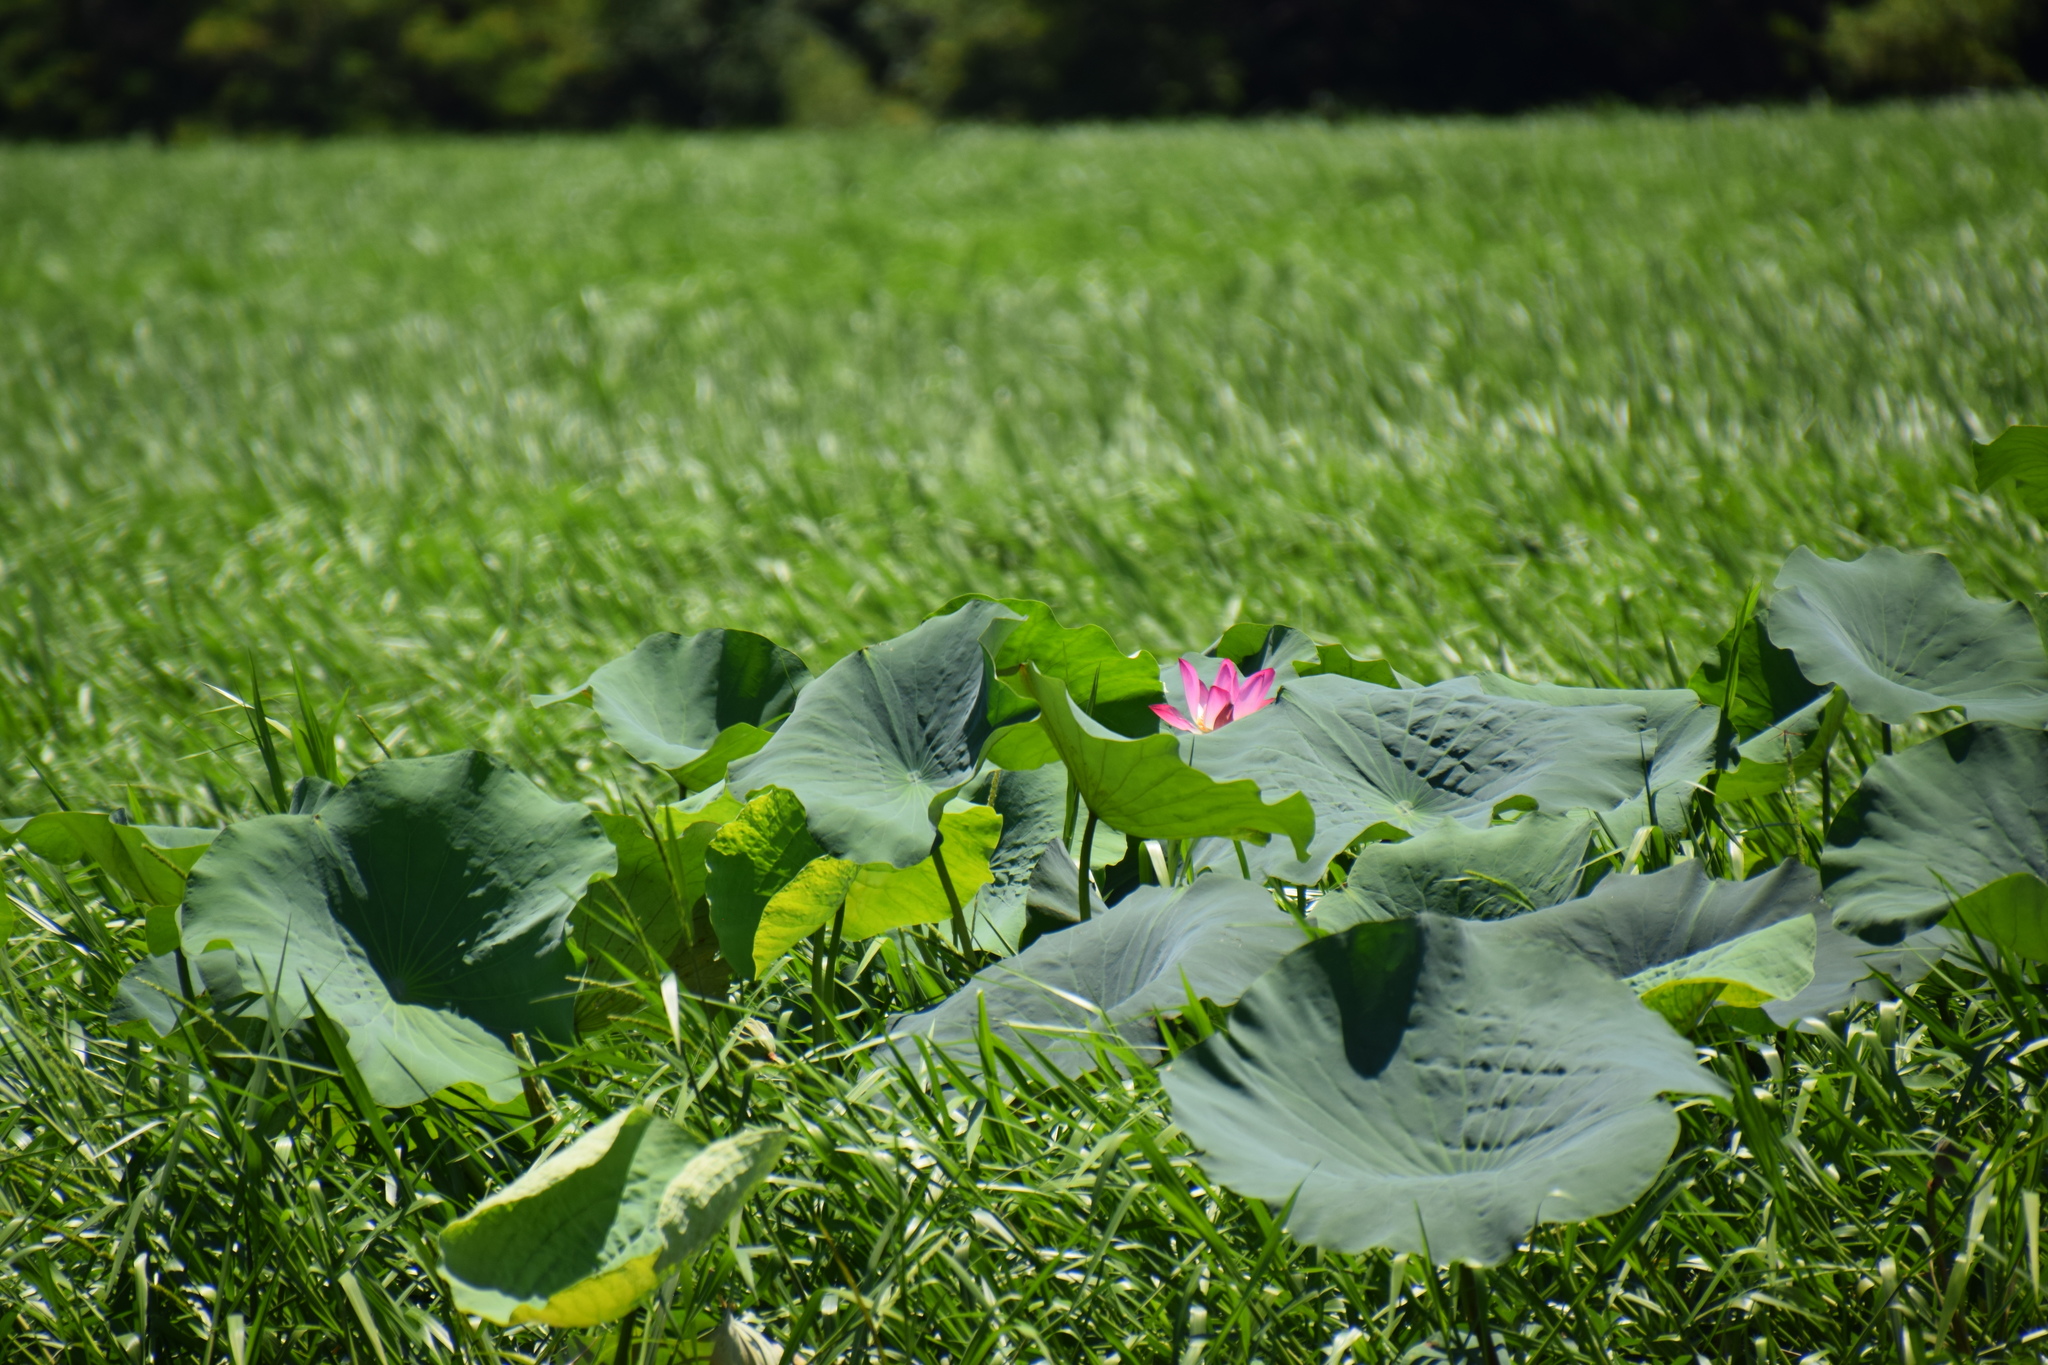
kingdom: Plantae
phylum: Tracheophyta
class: Magnoliopsida
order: Proteales
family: Nelumbonaceae
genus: Nelumbo
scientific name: Nelumbo nucifera
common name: Sacred lotus
